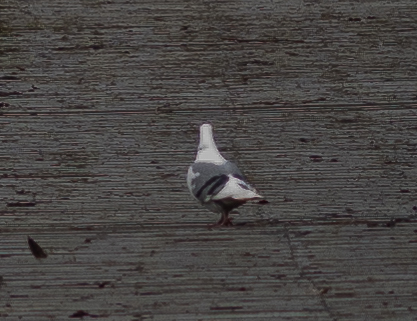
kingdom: Animalia
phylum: Chordata
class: Aves
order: Columbiformes
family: Columbidae
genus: Columba
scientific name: Columba livia
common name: Rock pigeon
